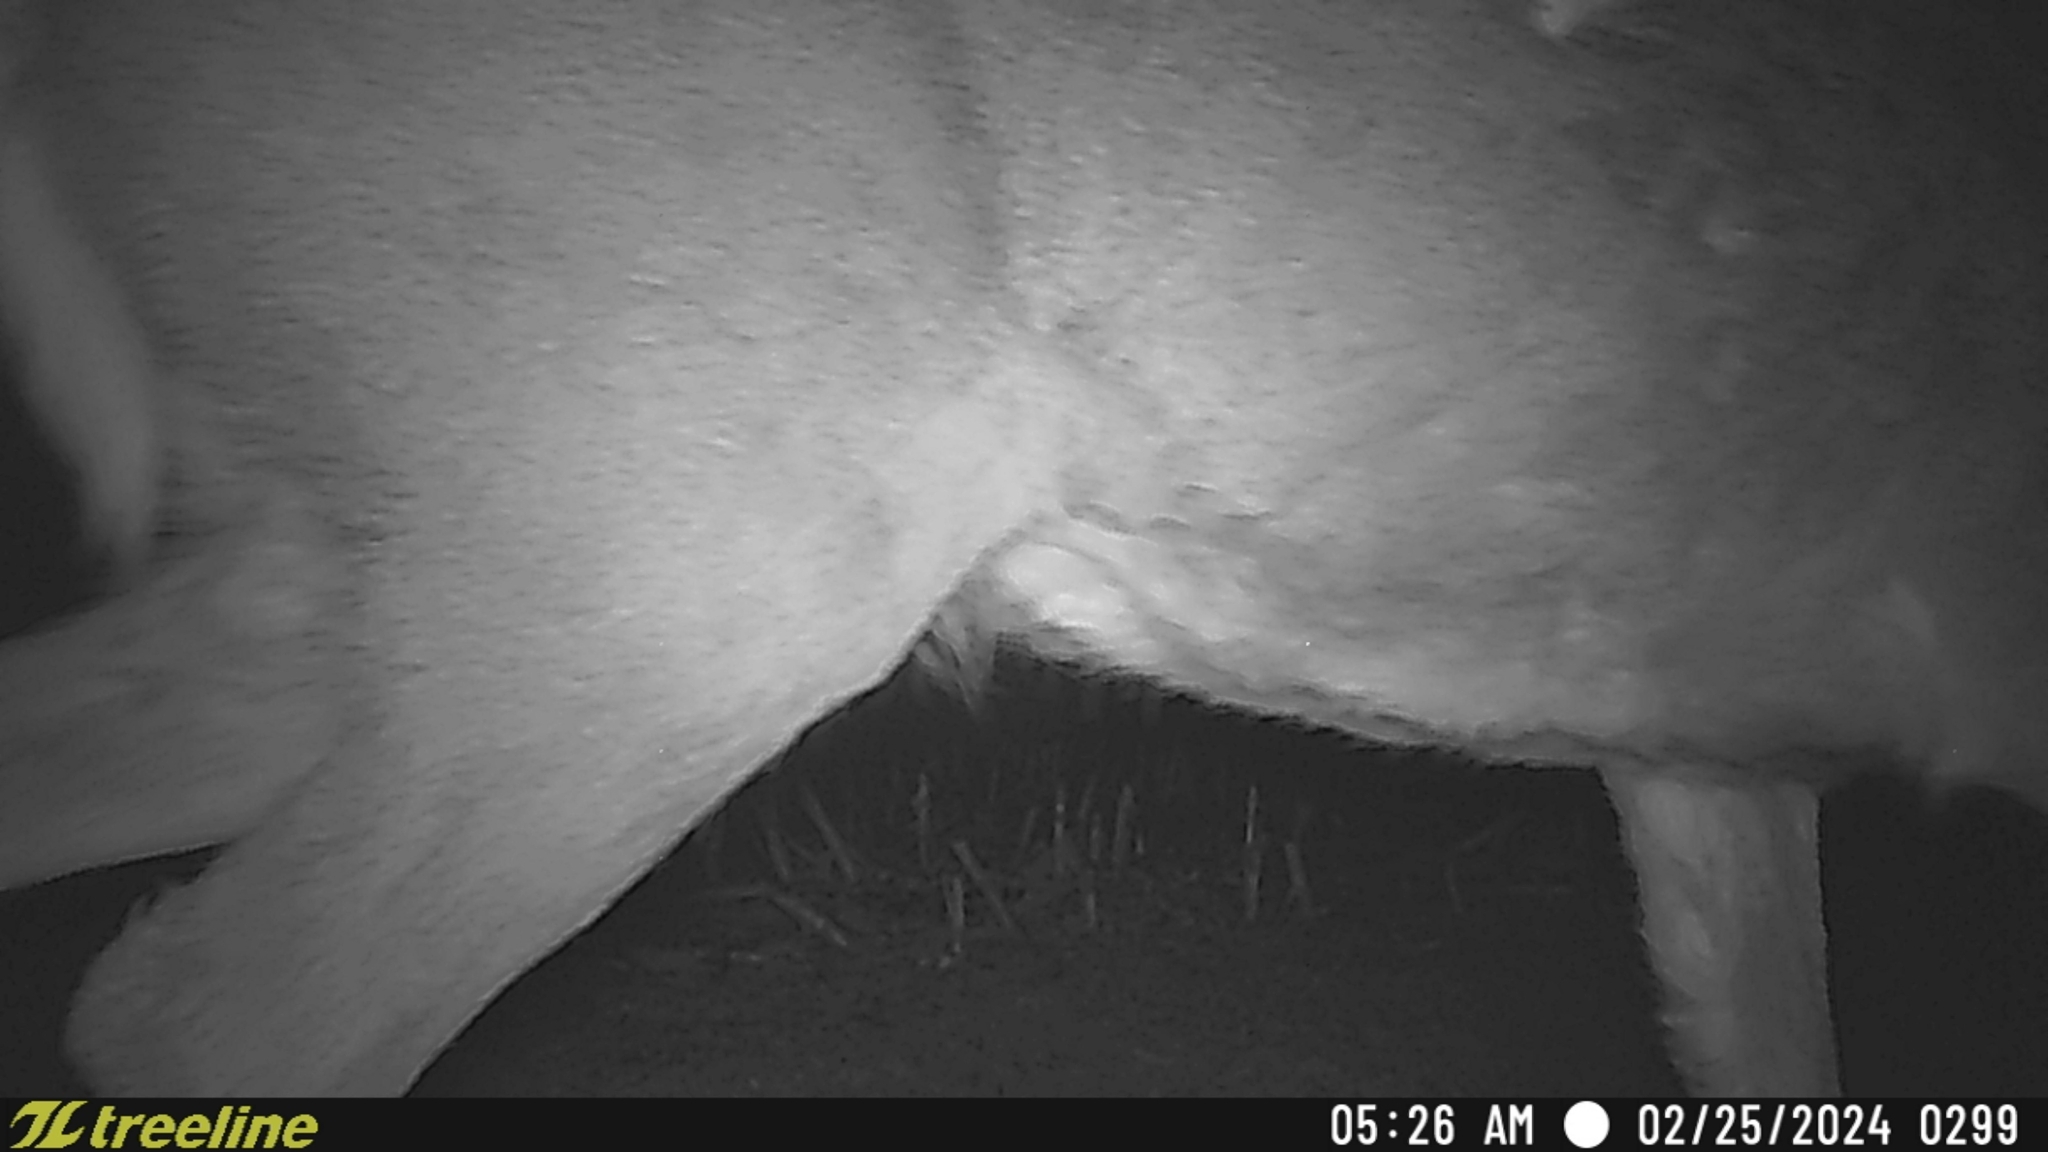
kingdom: Animalia
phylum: Chordata
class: Mammalia
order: Artiodactyla
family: Cervidae
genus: Odocoileus
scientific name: Odocoileus virginianus
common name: White-tailed deer
